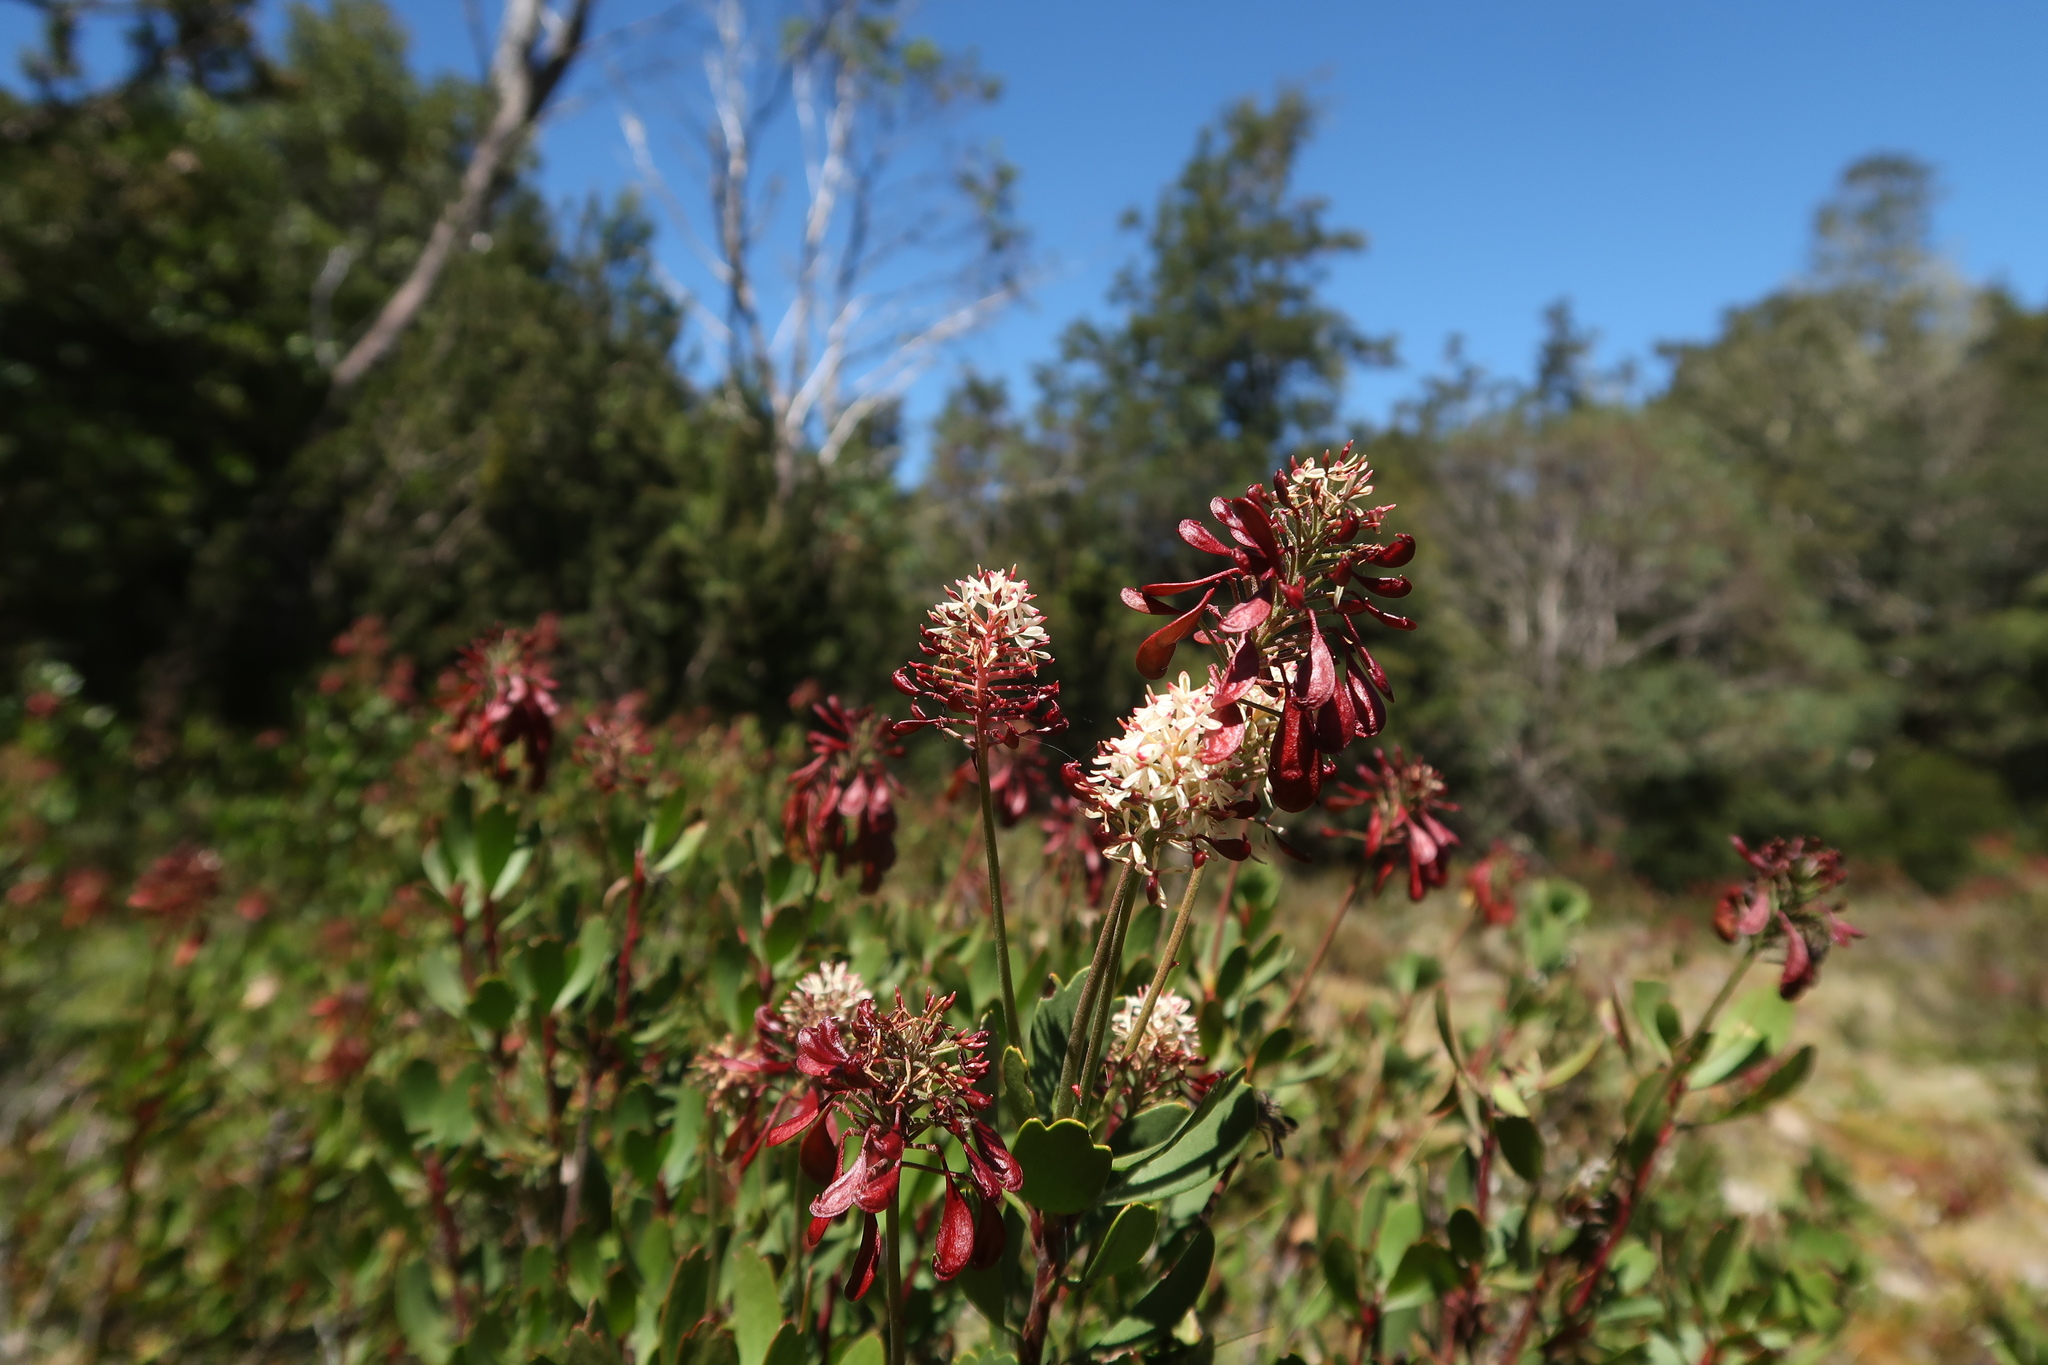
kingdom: Plantae
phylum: Tracheophyta
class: Magnoliopsida
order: Proteales
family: Proteaceae
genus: Bellendena
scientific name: Bellendena montana
